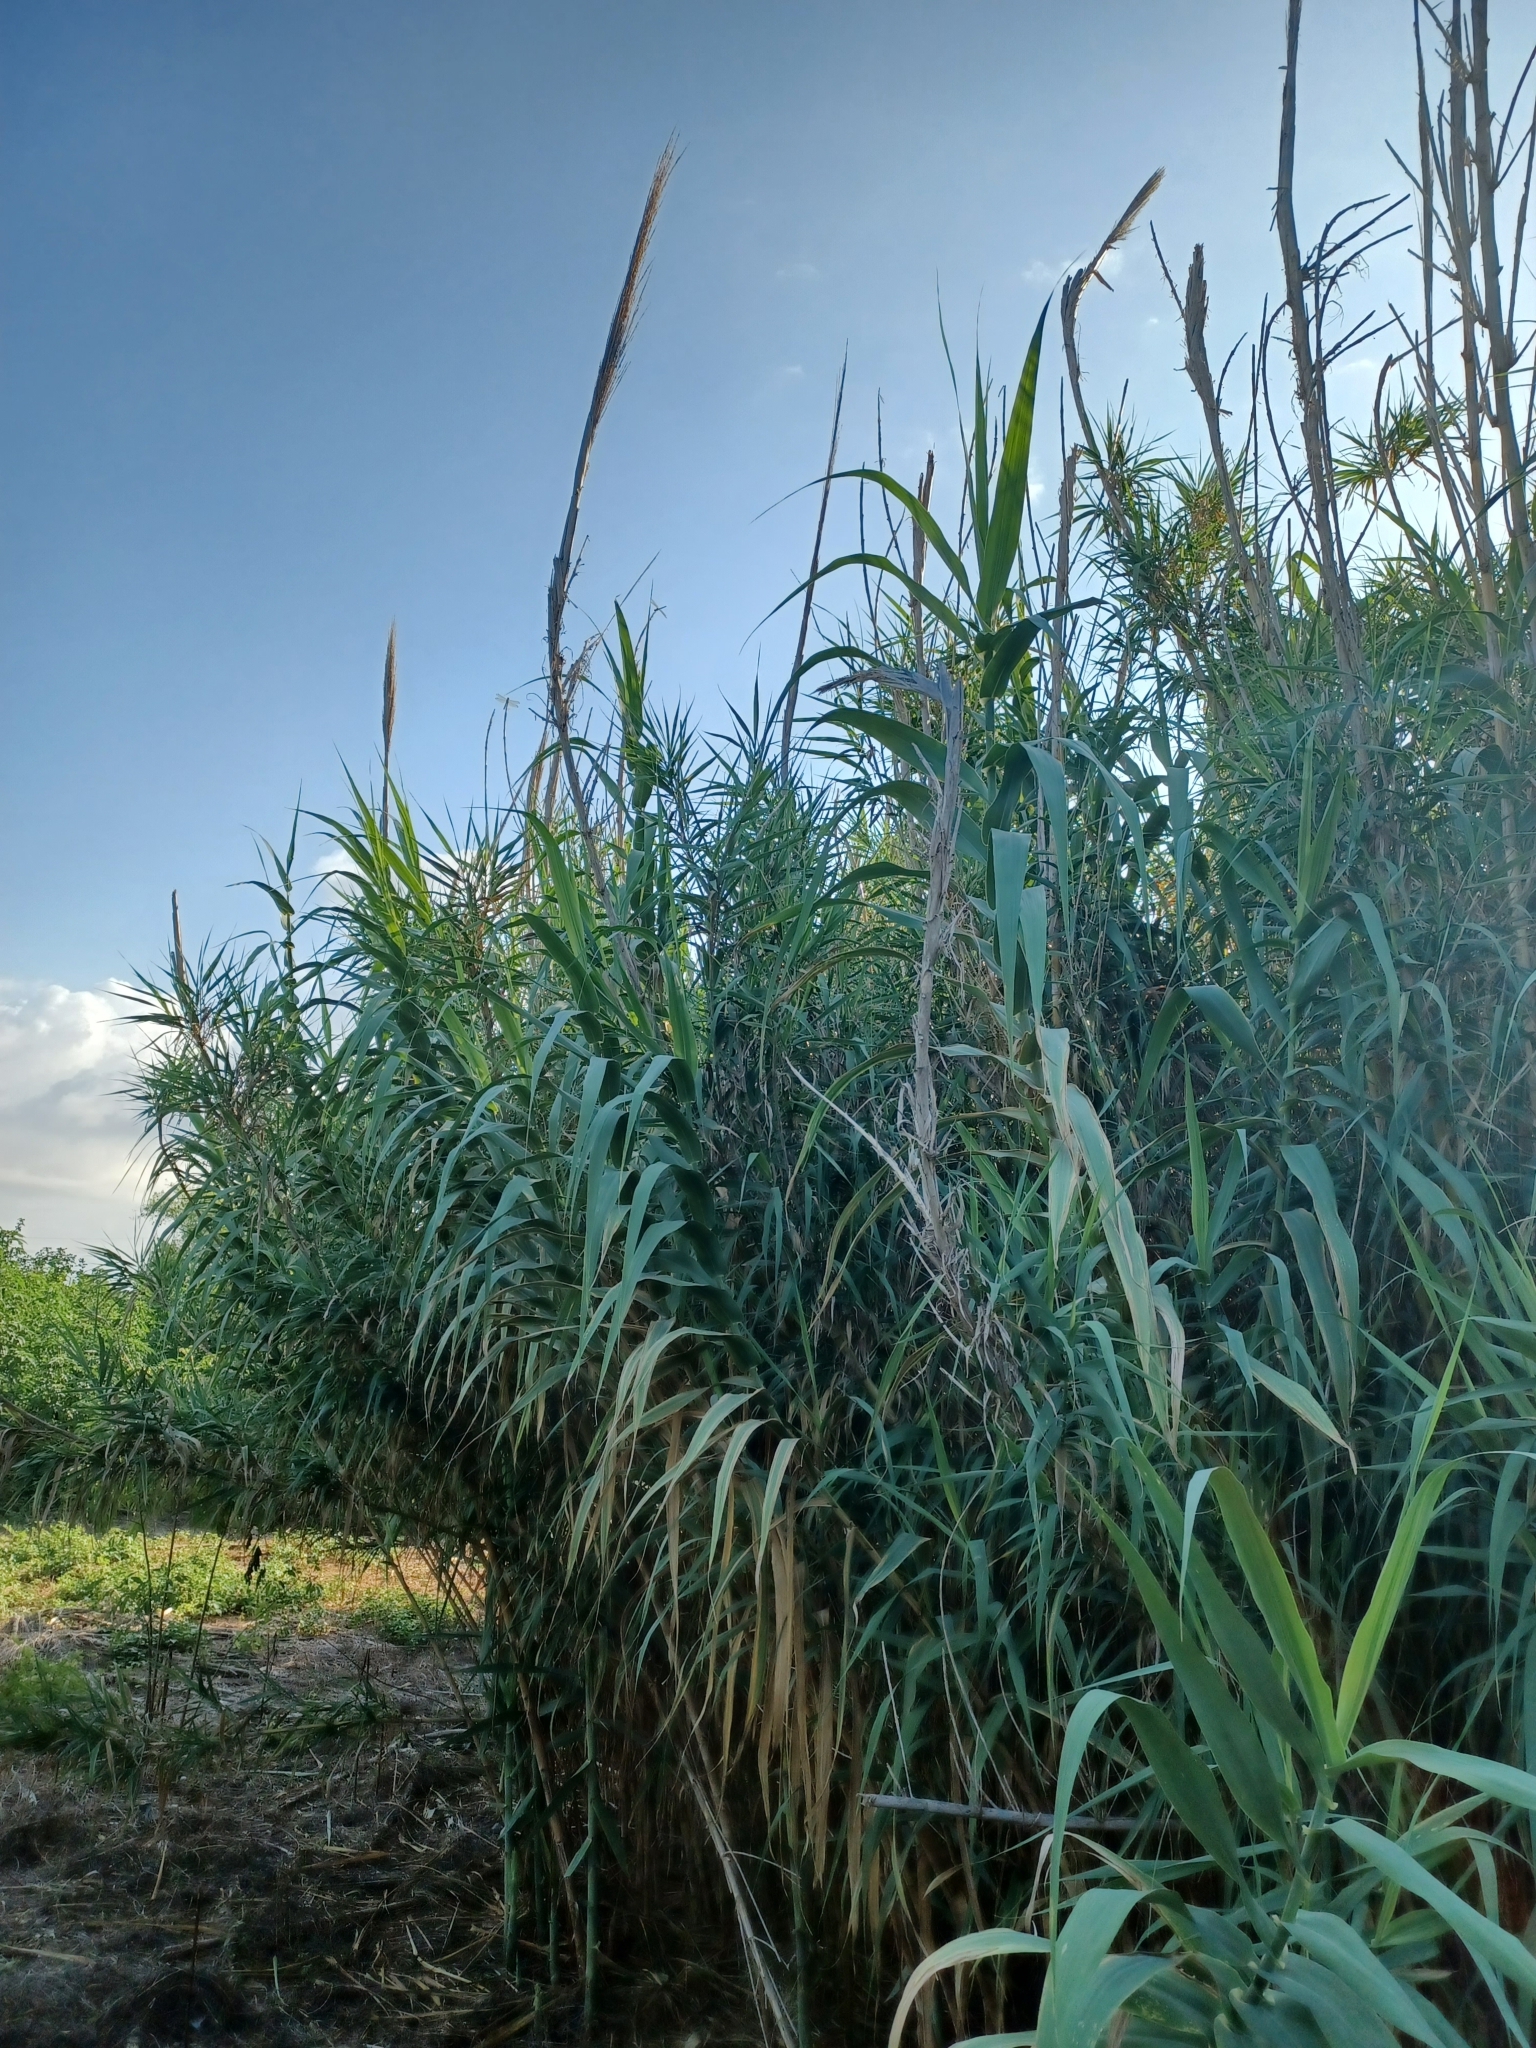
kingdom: Plantae
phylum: Tracheophyta
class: Liliopsida
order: Poales
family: Poaceae
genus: Arundo
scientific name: Arundo donax
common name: Giant reed
